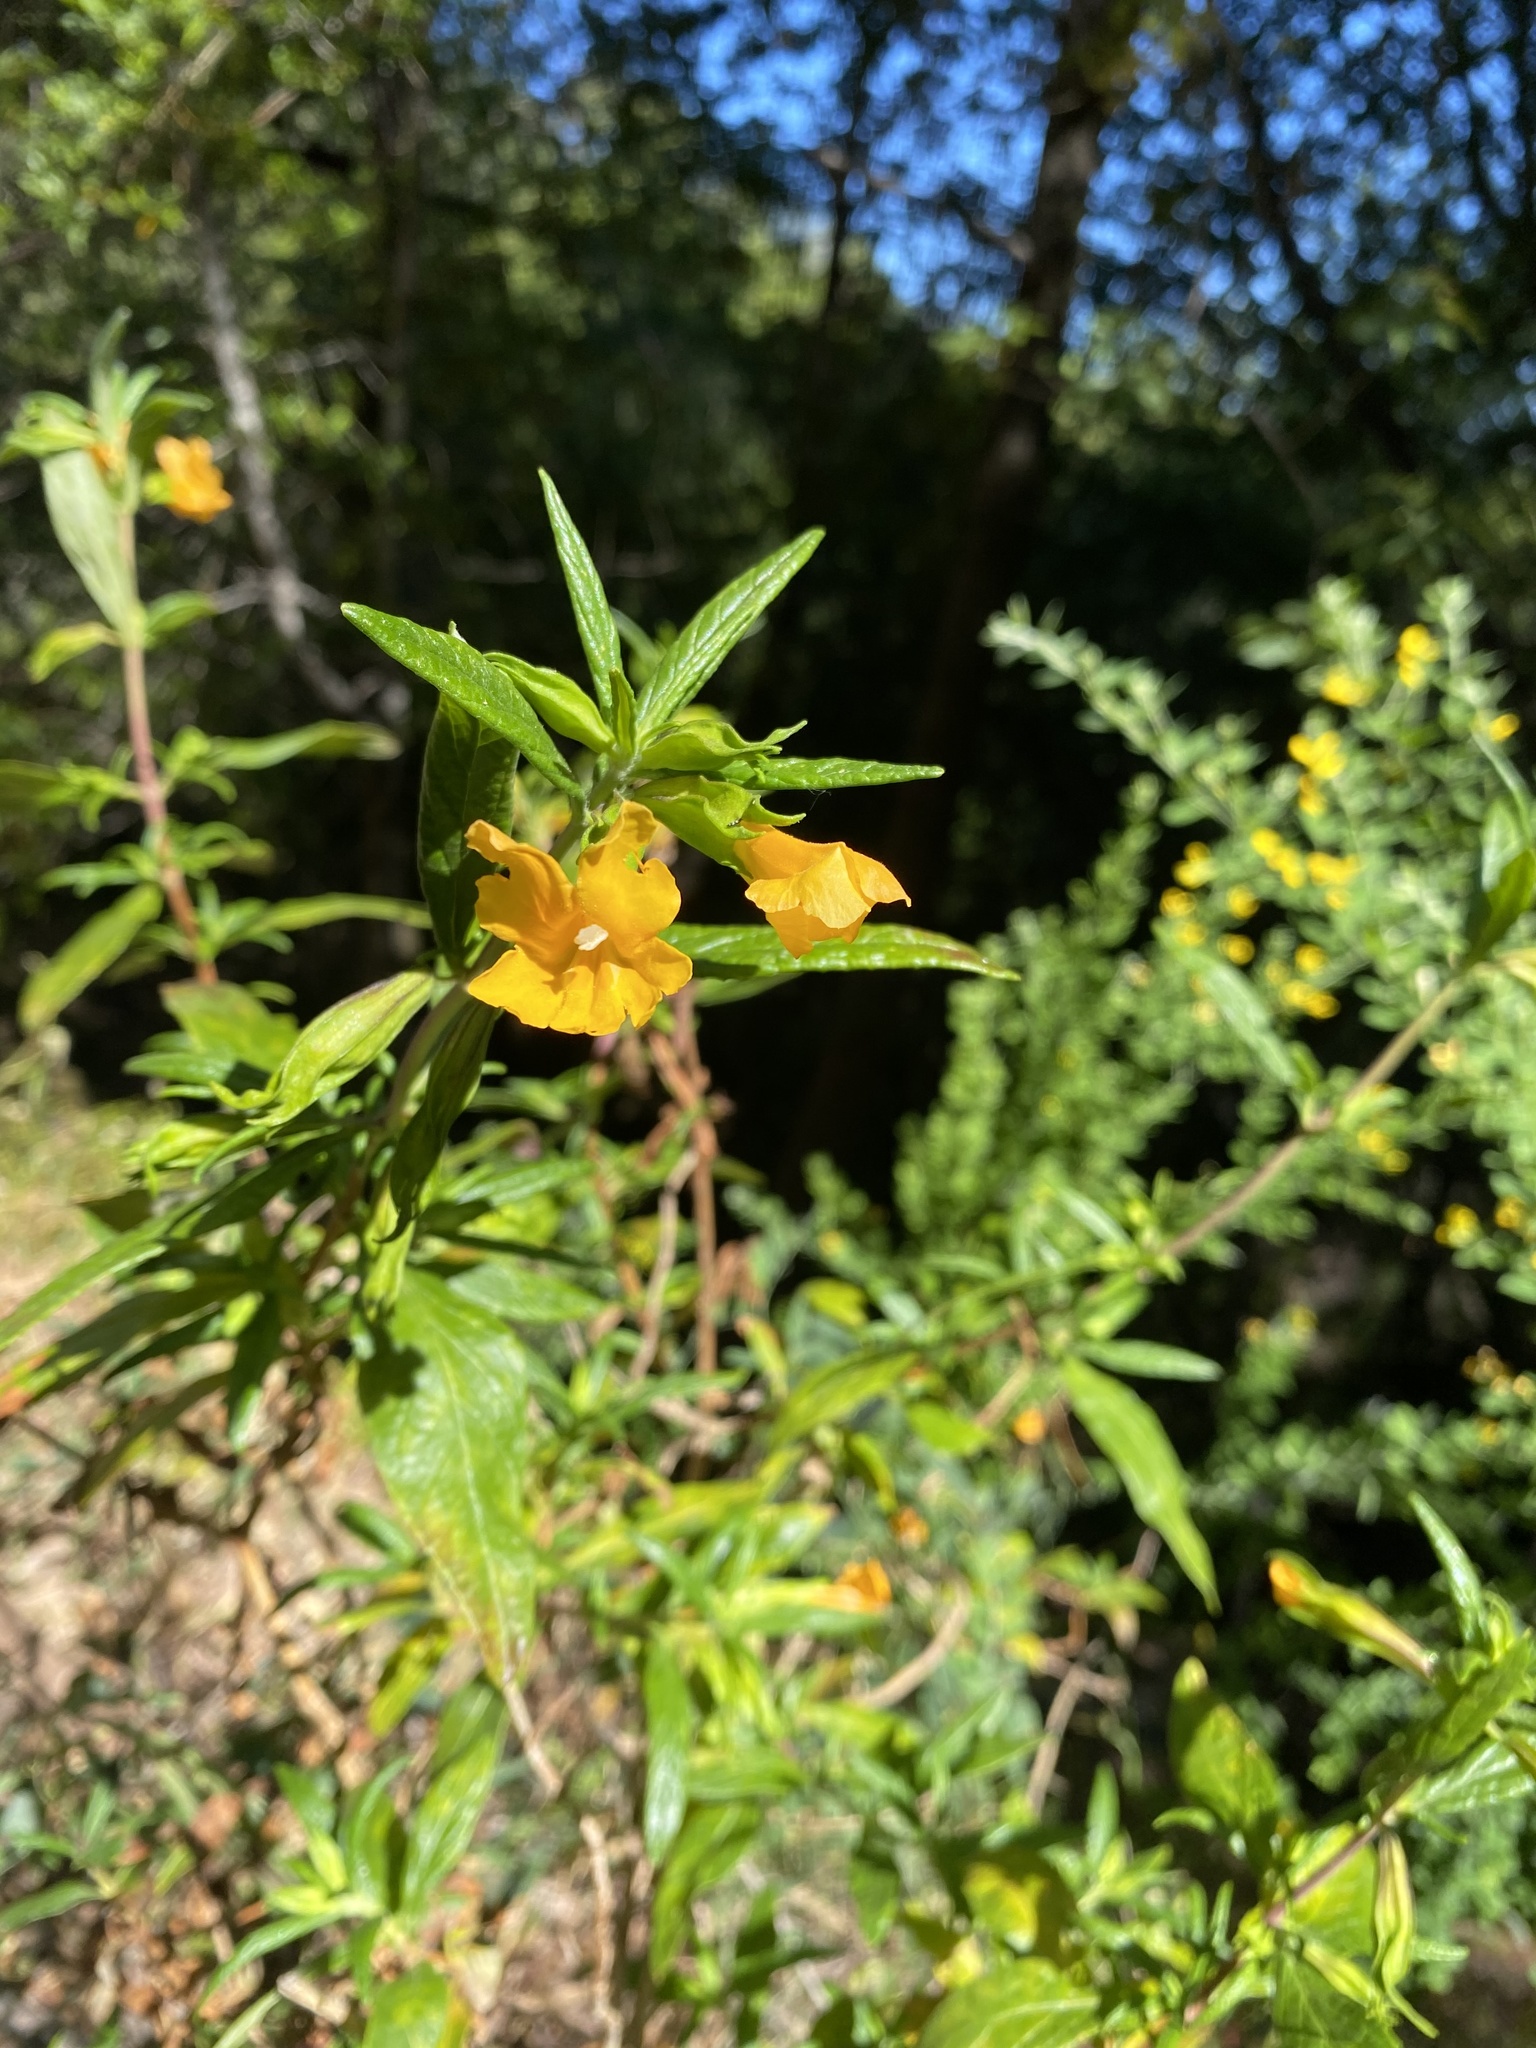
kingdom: Plantae
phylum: Tracheophyta
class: Magnoliopsida
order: Lamiales
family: Phrymaceae
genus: Diplacus
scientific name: Diplacus aurantiacus
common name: Bush monkey-flower
